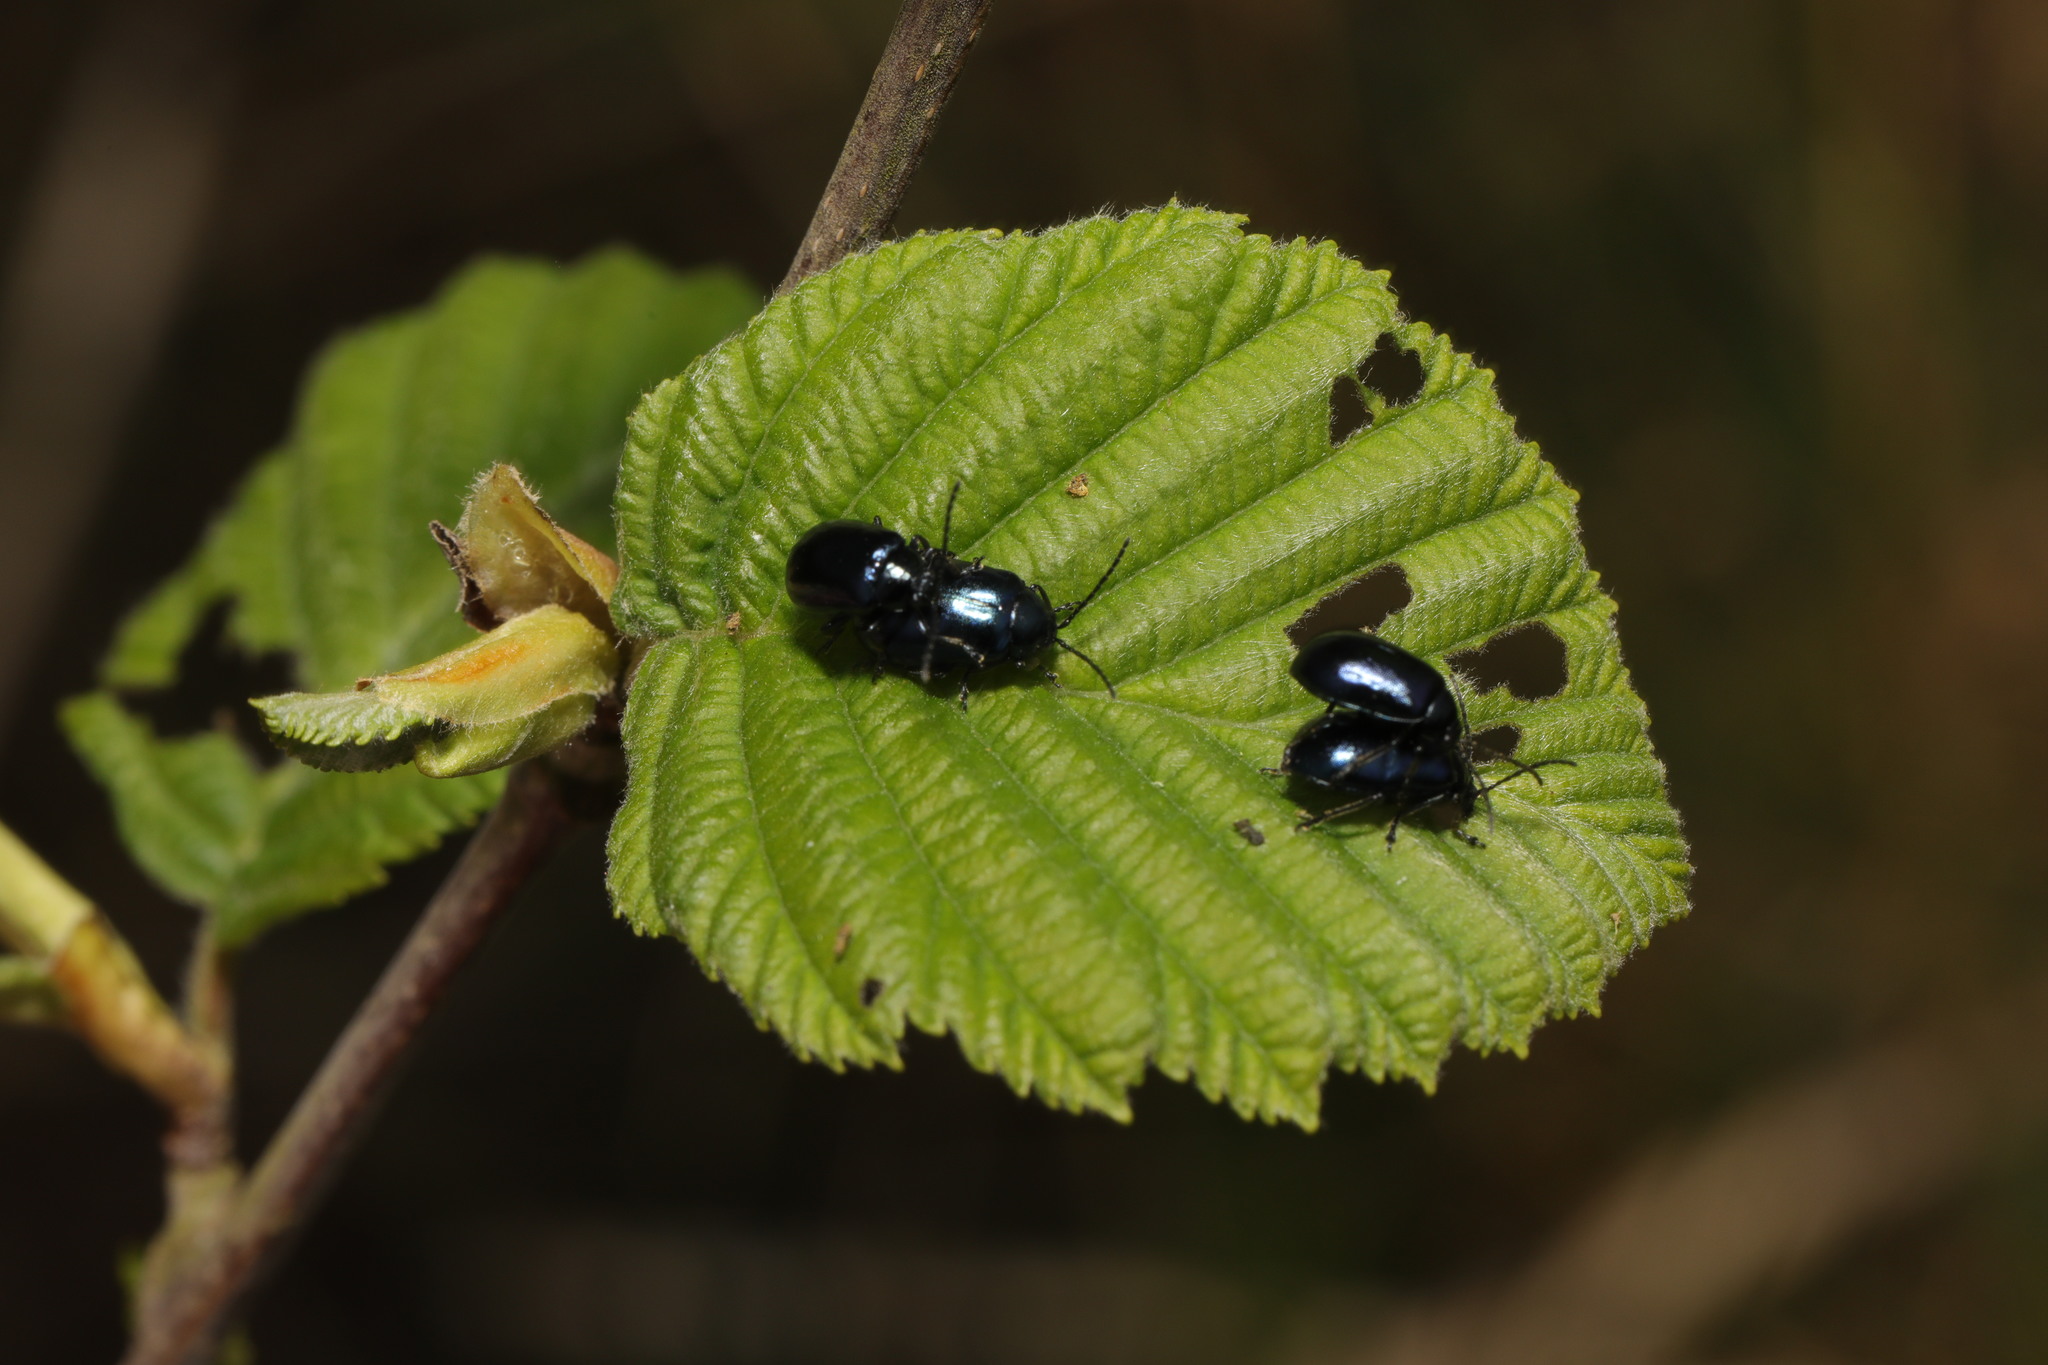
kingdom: Animalia
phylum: Arthropoda
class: Insecta
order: Coleoptera
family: Chrysomelidae
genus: Agelastica
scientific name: Agelastica alni
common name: Alder leaf beetle
